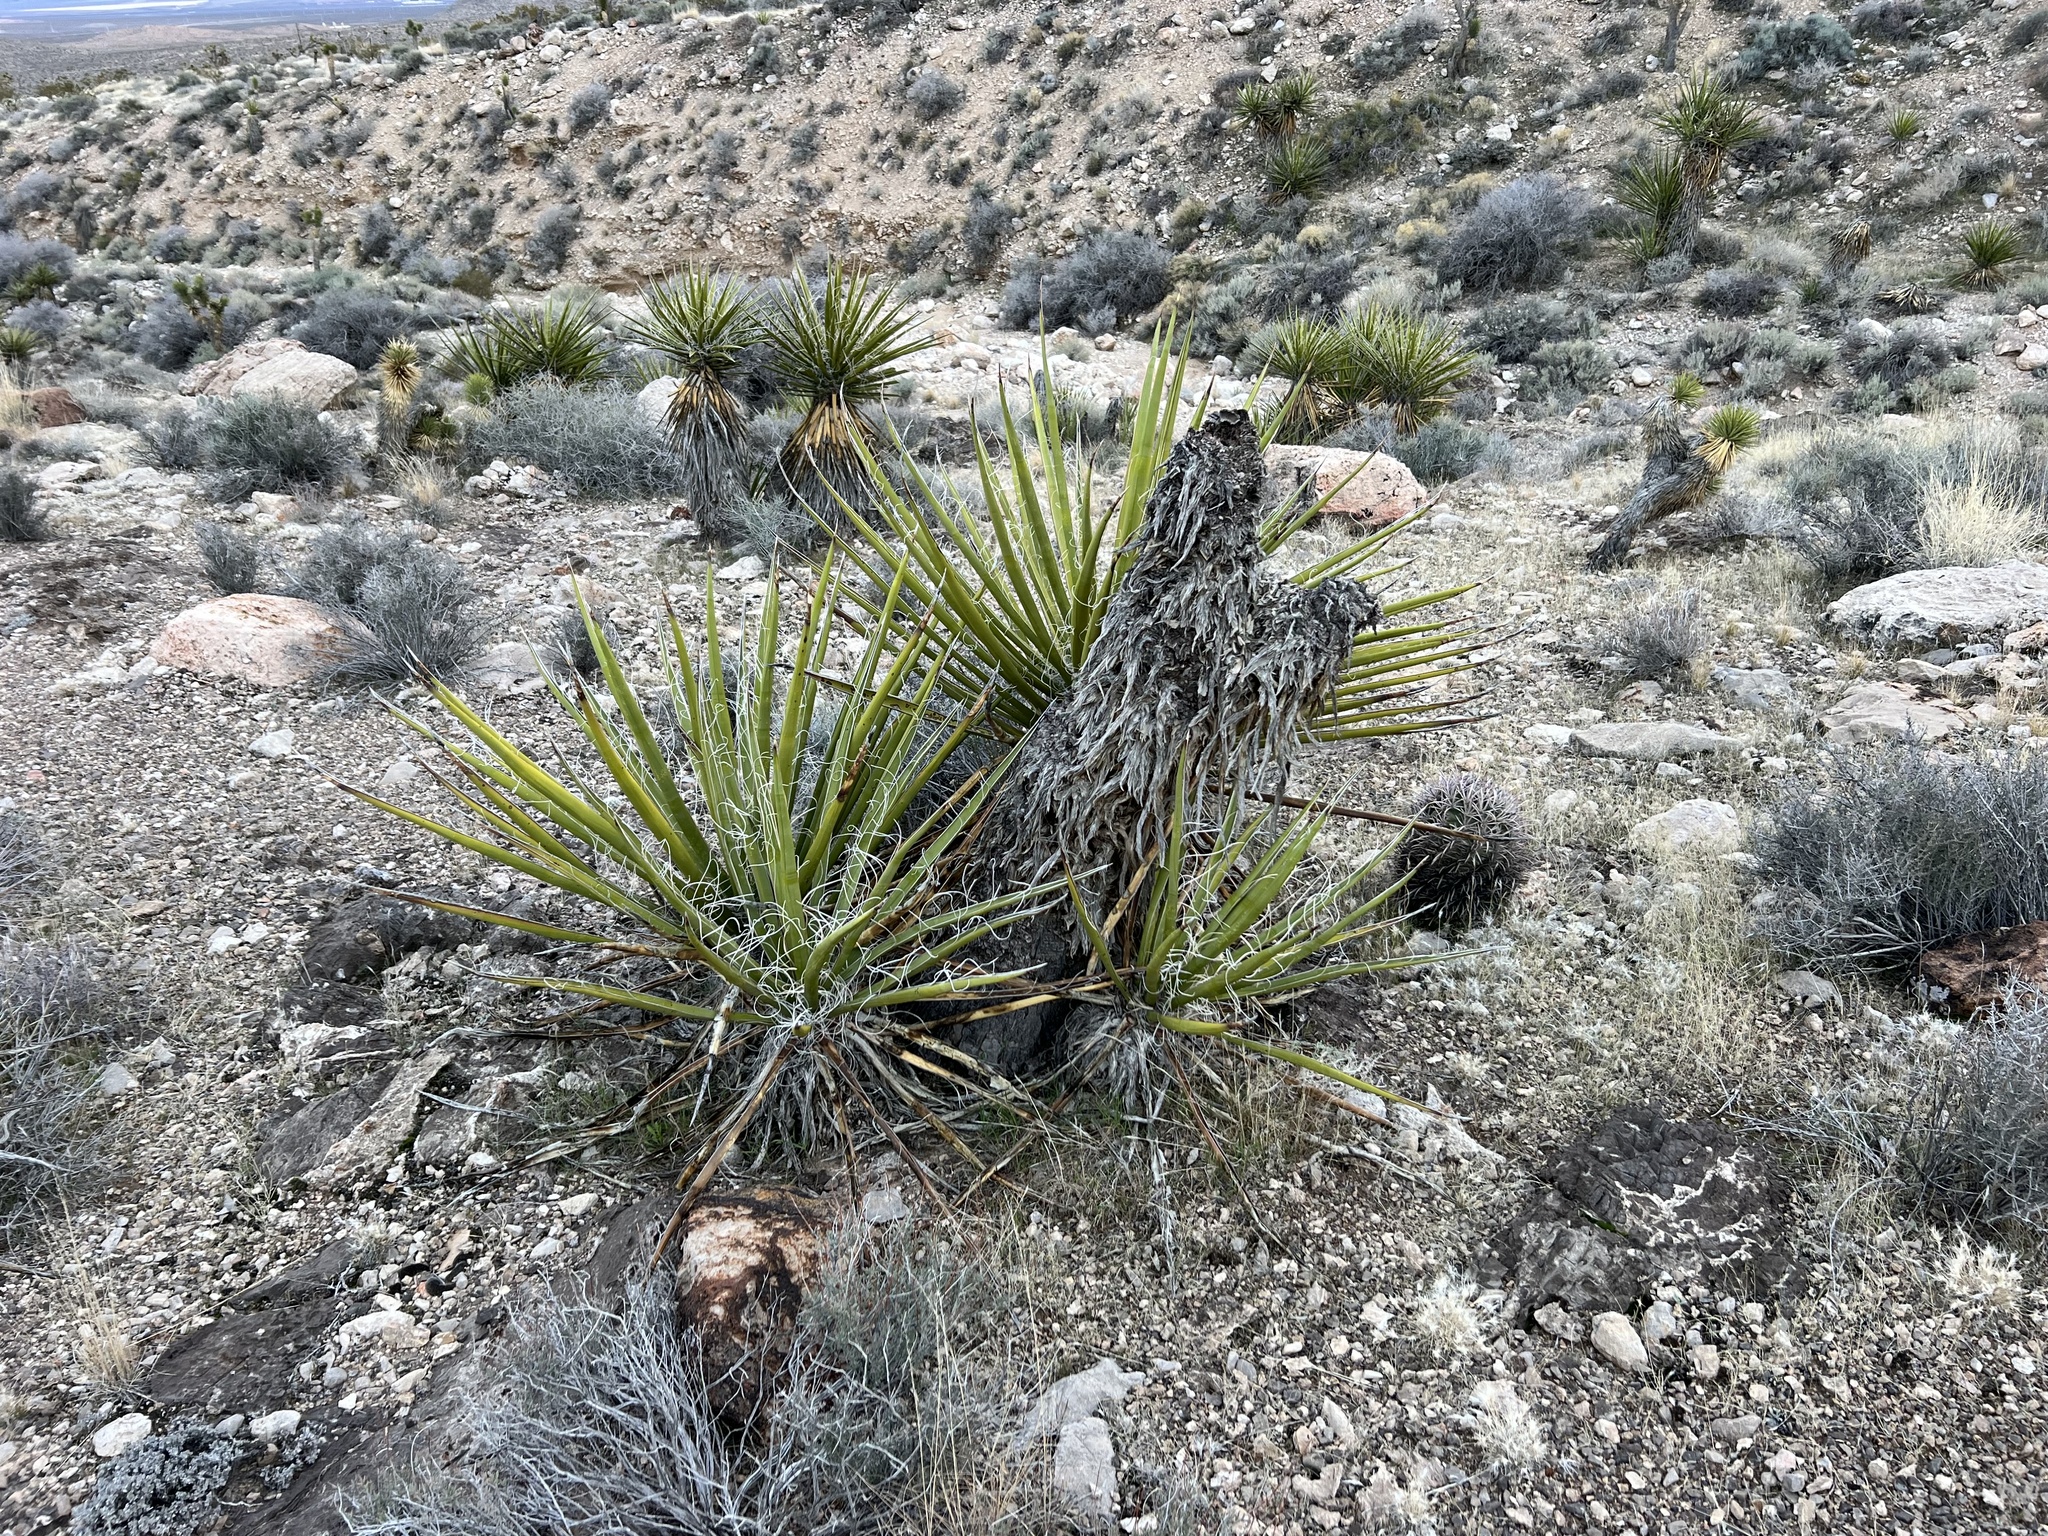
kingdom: Plantae
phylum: Tracheophyta
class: Liliopsida
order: Asparagales
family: Asparagaceae
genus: Yucca
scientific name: Yucca schidigera
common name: Mojave yucca
